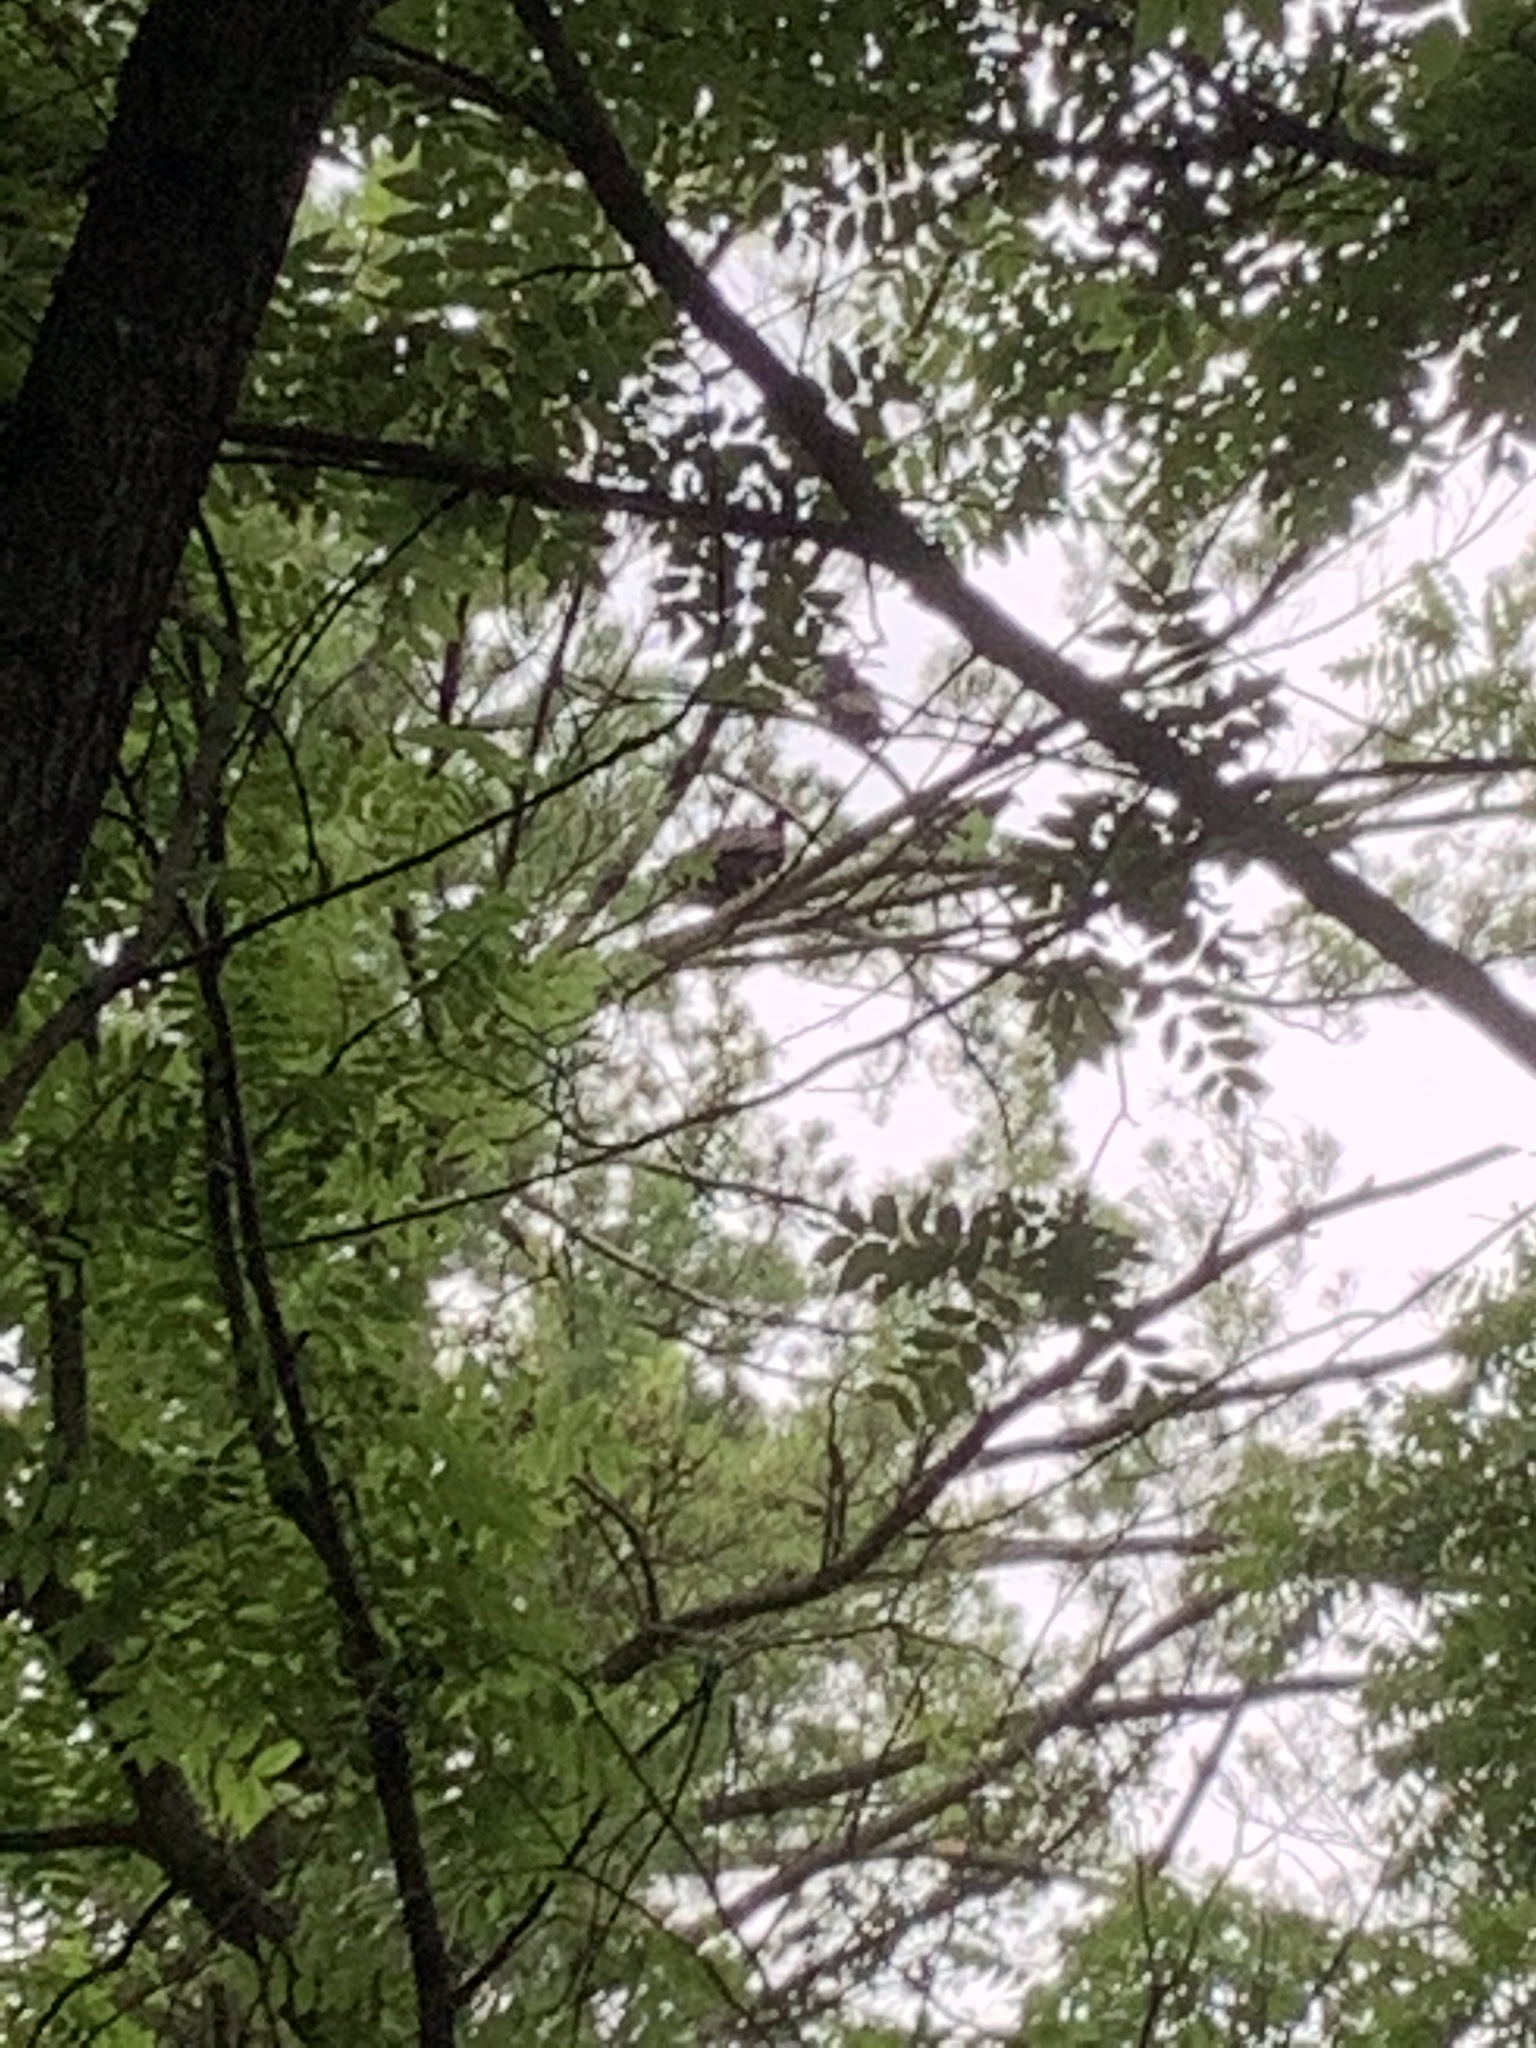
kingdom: Animalia
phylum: Chordata
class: Aves
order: Accipitriformes
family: Cathartidae
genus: Cathartes
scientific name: Cathartes aura
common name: Turkey vulture
